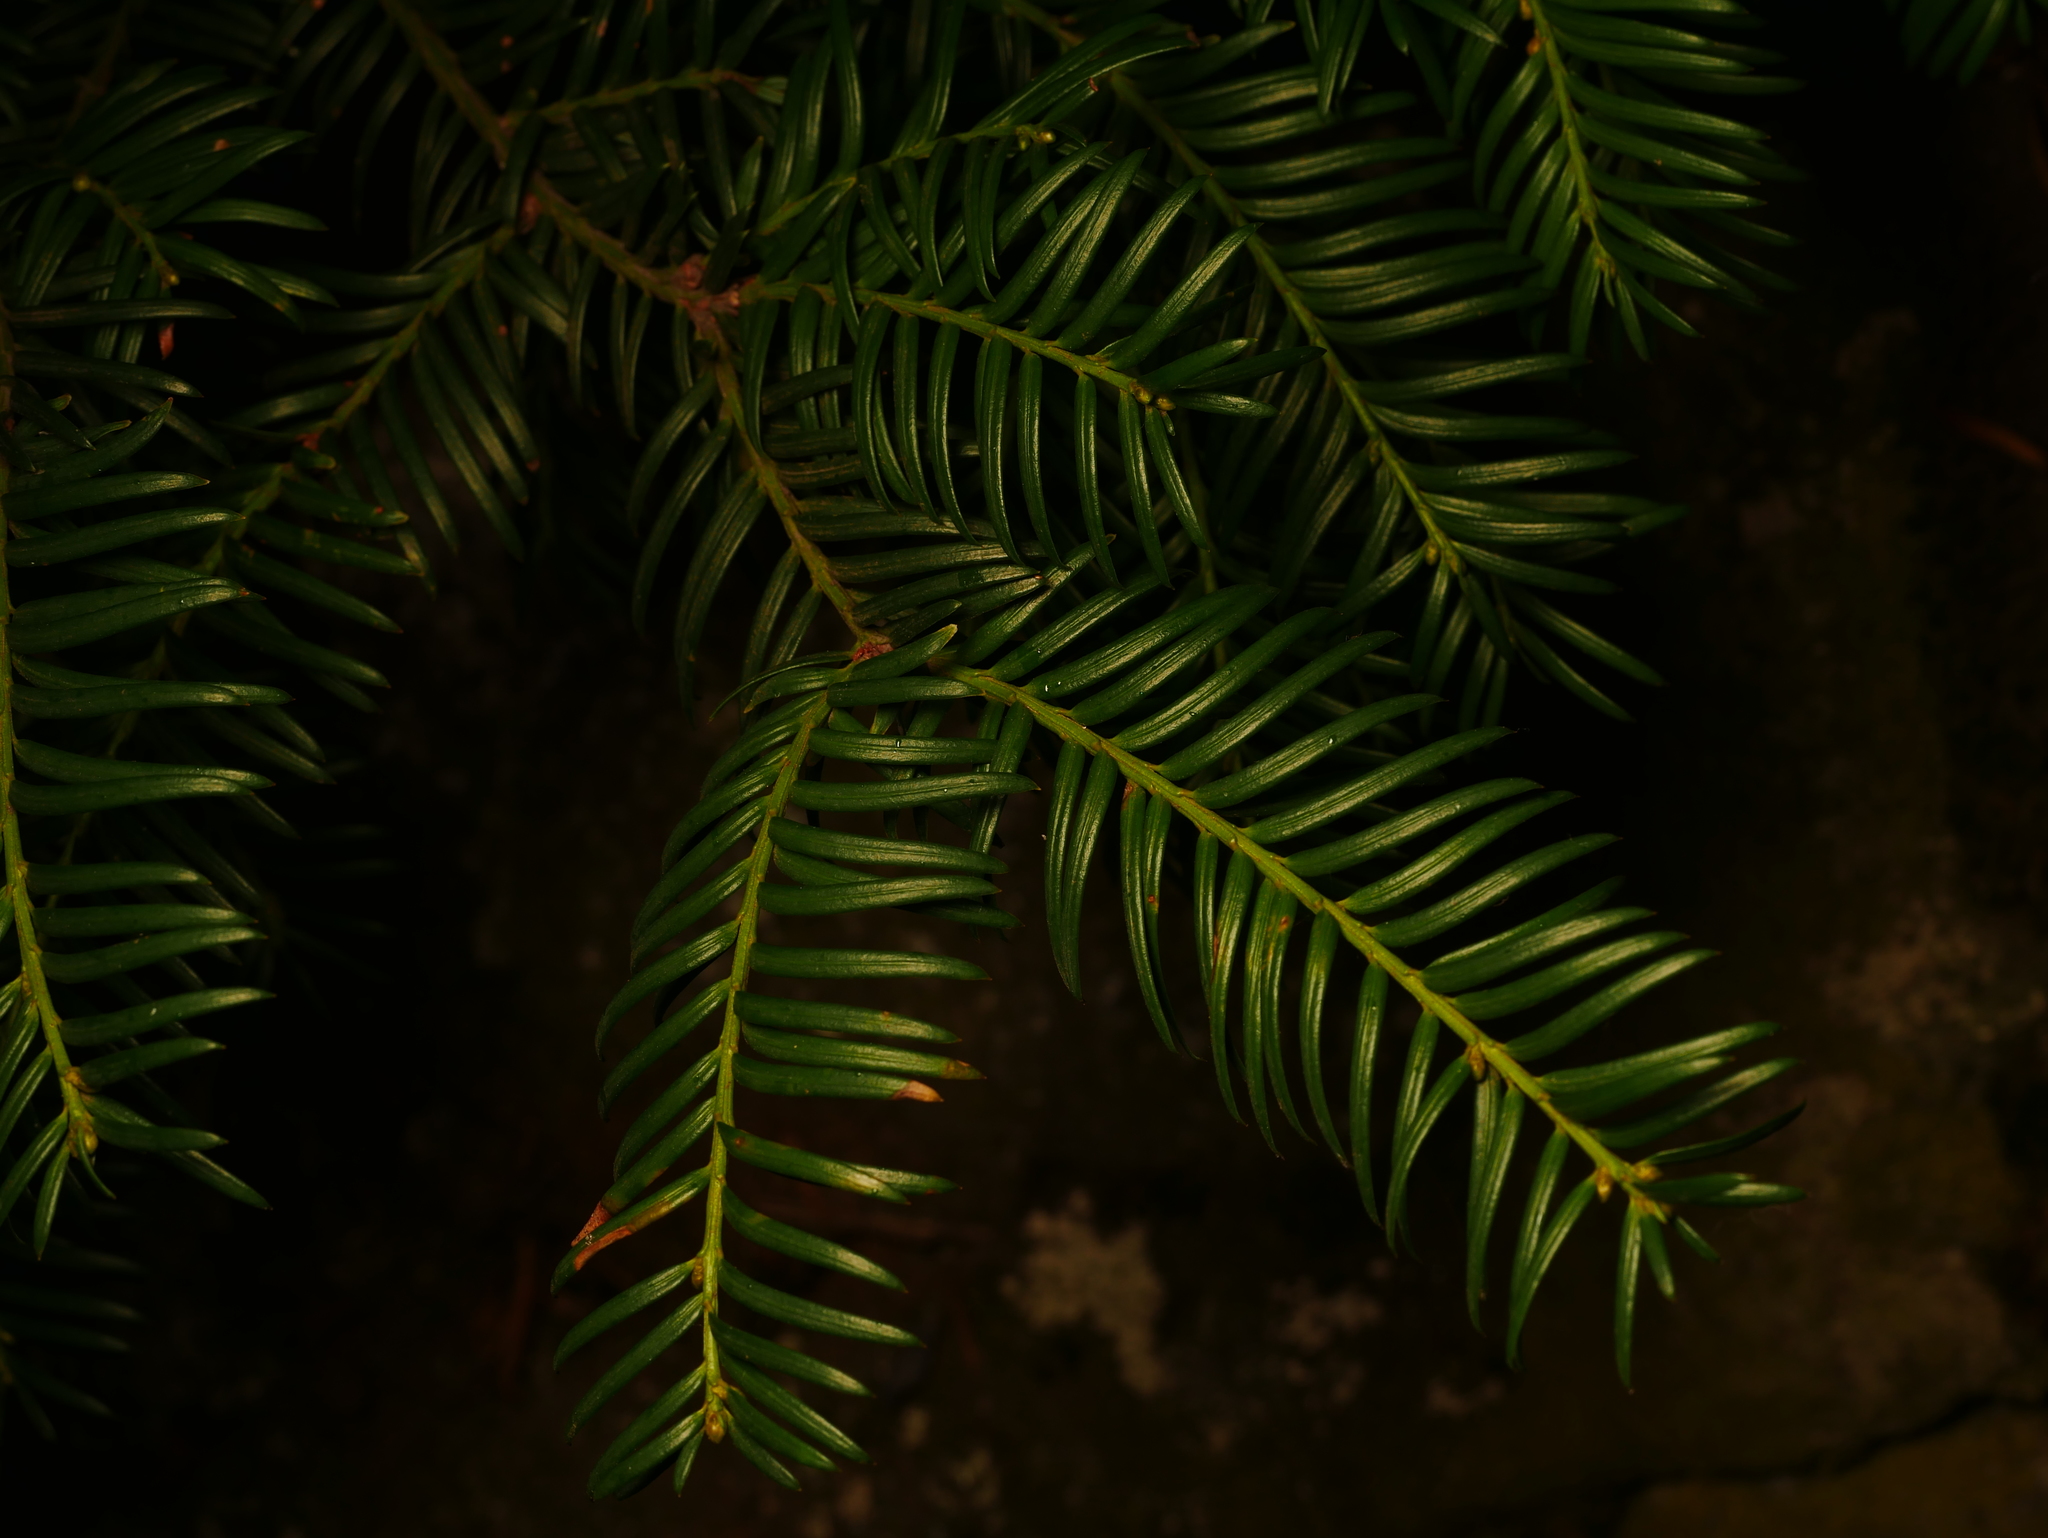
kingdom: Plantae
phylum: Tracheophyta
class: Pinopsida
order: Pinales
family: Taxaceae
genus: Taxus
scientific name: Taxus baccata
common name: Yew
